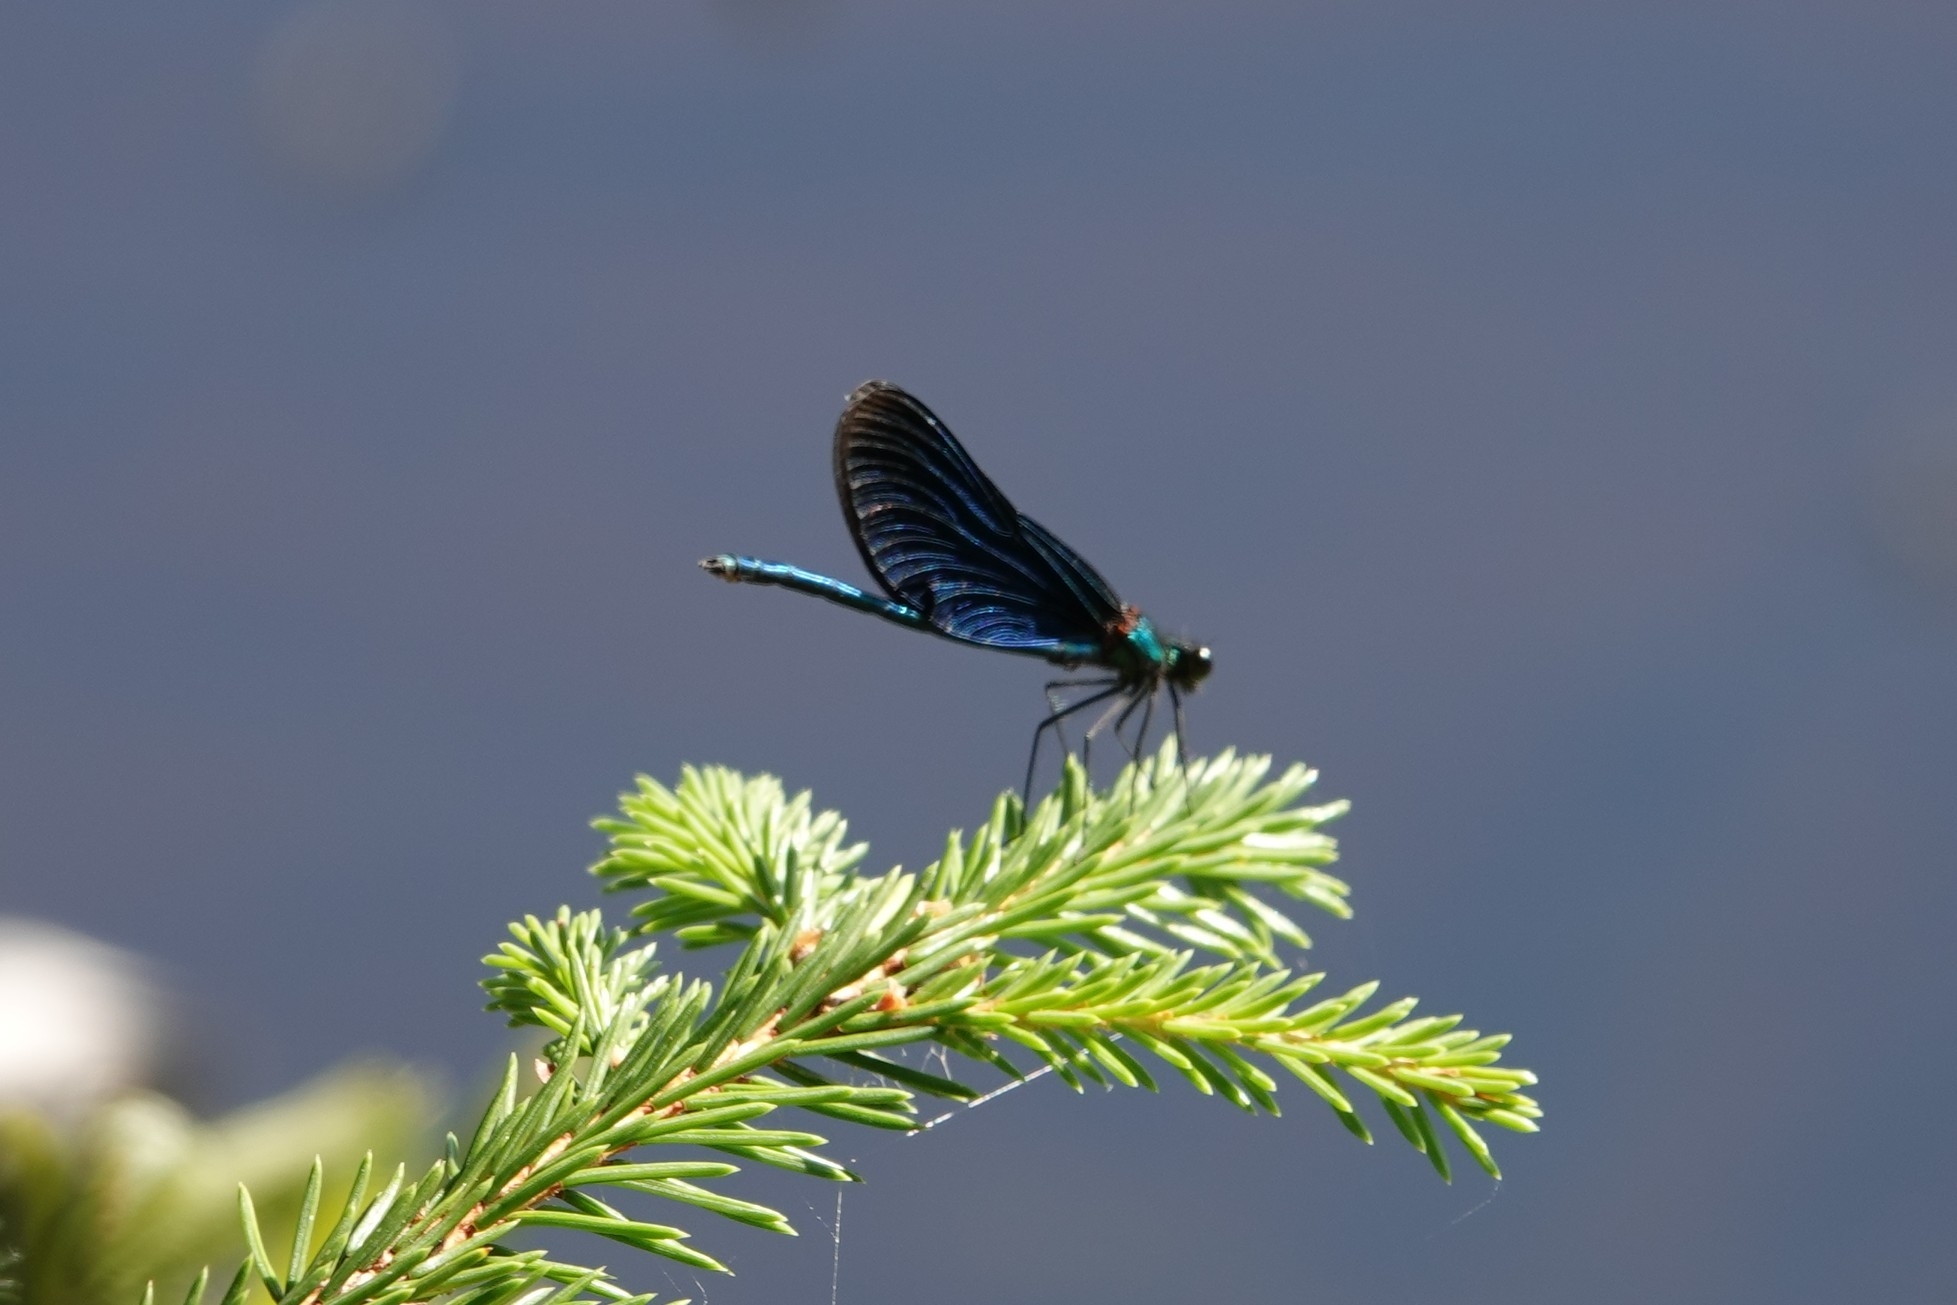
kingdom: Animalia
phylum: Arthropoda
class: Insecta
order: Odonata
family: Calopterygidae
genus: Calopteryx
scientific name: Calopteryx virgo
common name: Beautiful demoiselle
